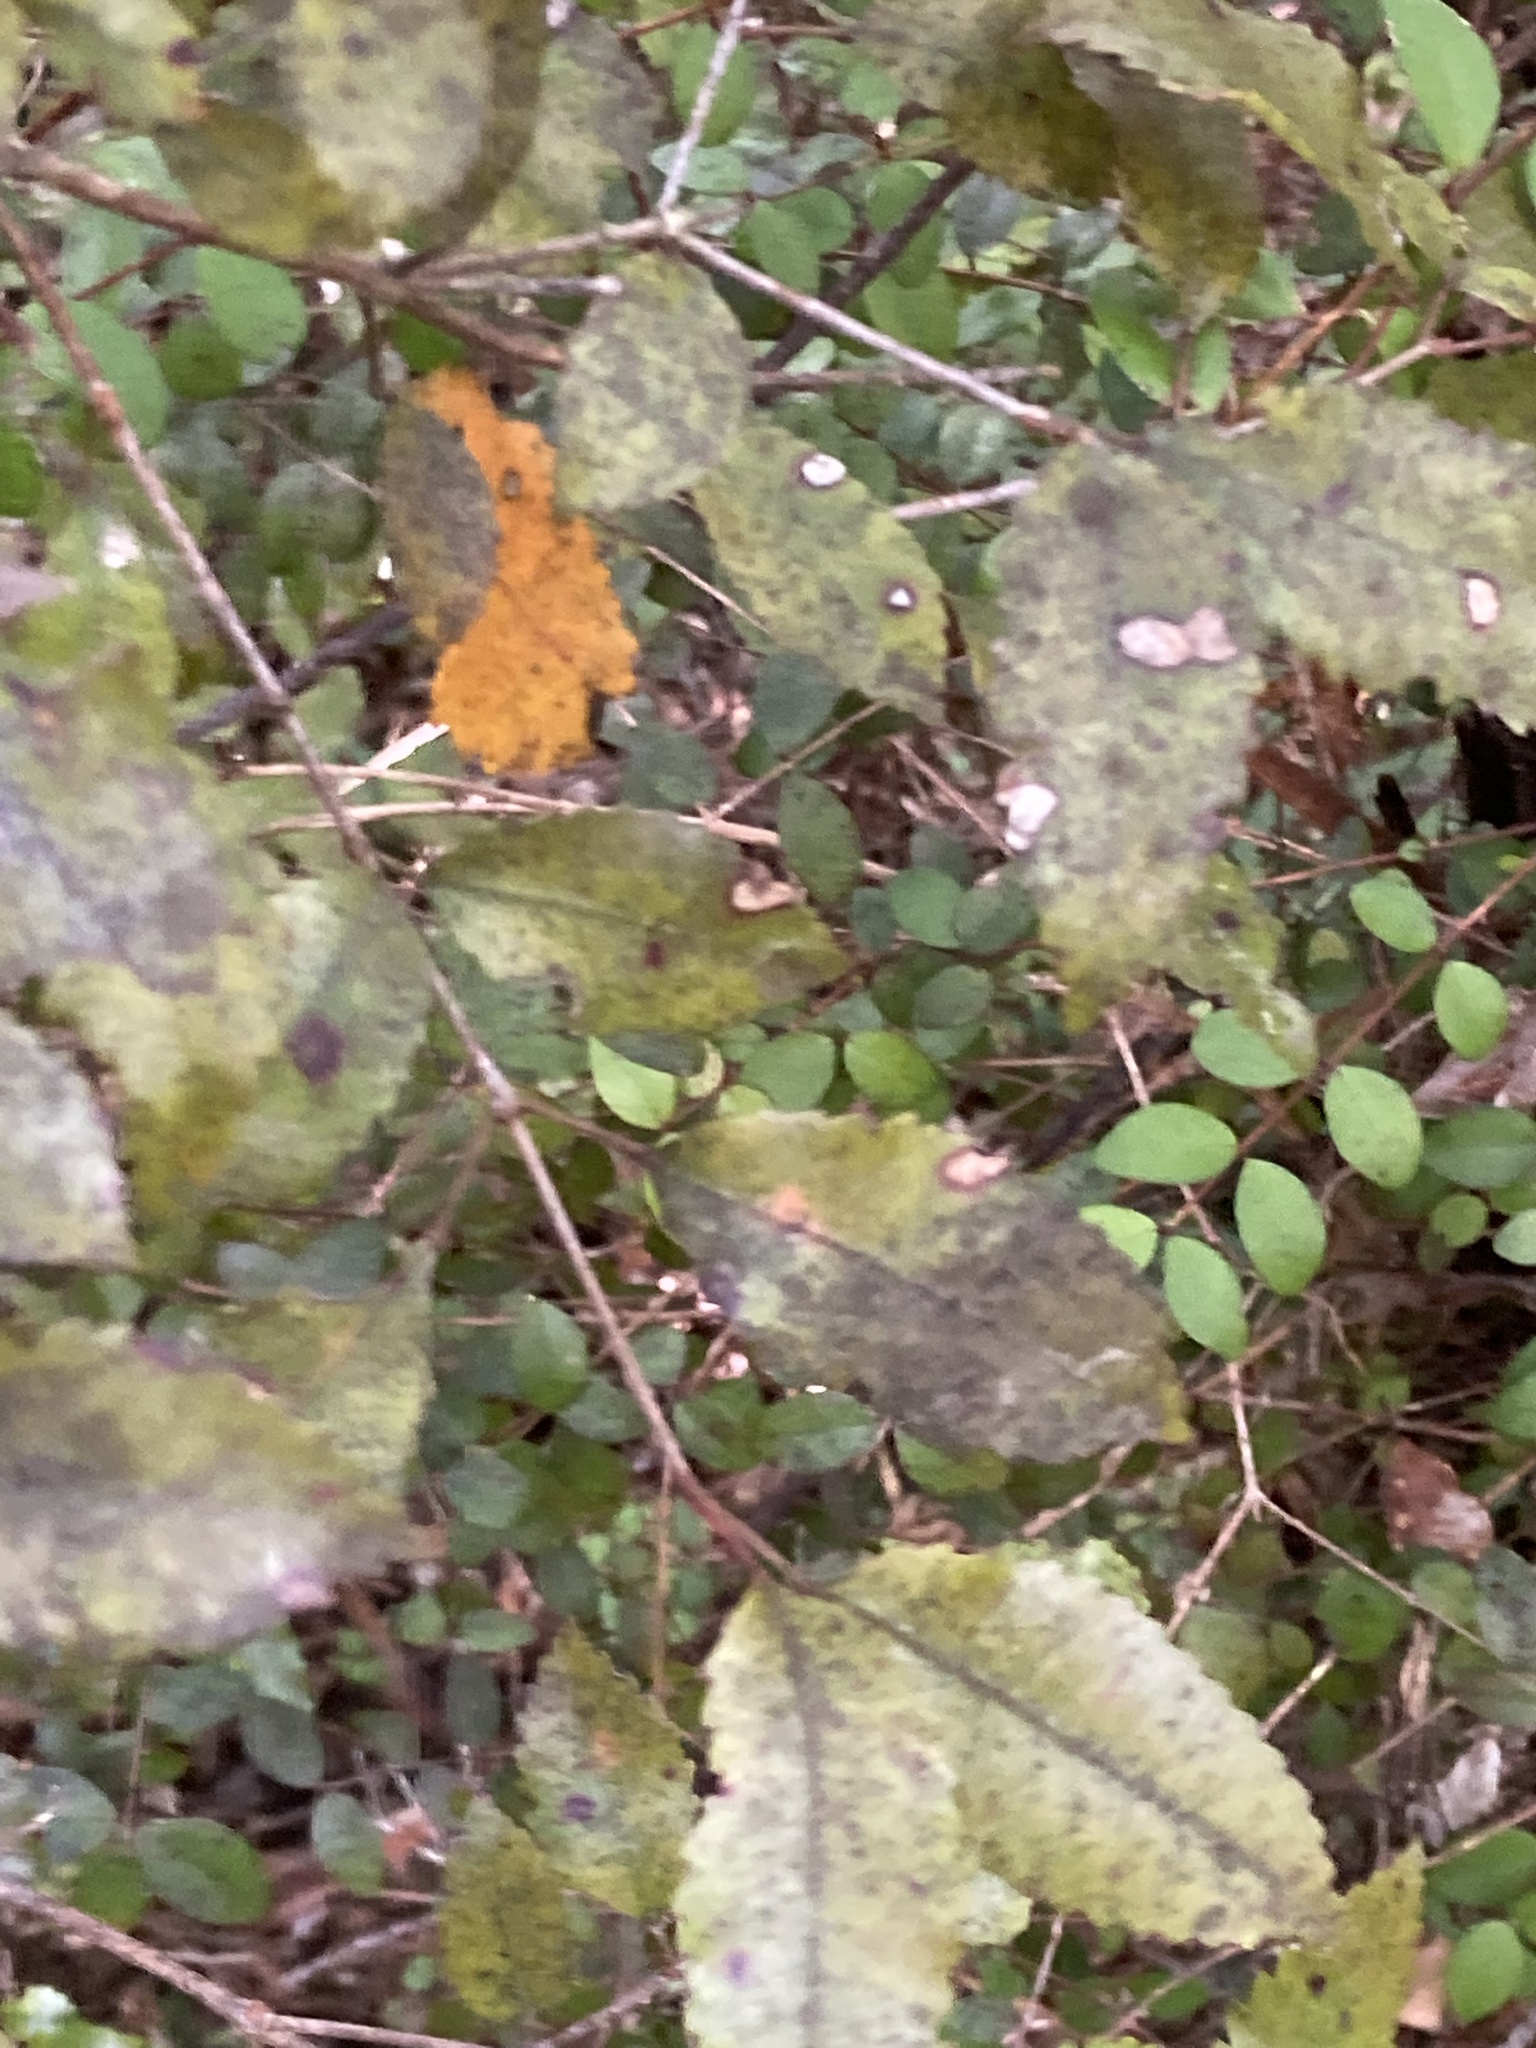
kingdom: Plantae
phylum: Tracheophyta
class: Magnoliopsida
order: Oxalidales
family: Cunoniaceae
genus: Pterophylla
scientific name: Pterophylla racemosa
